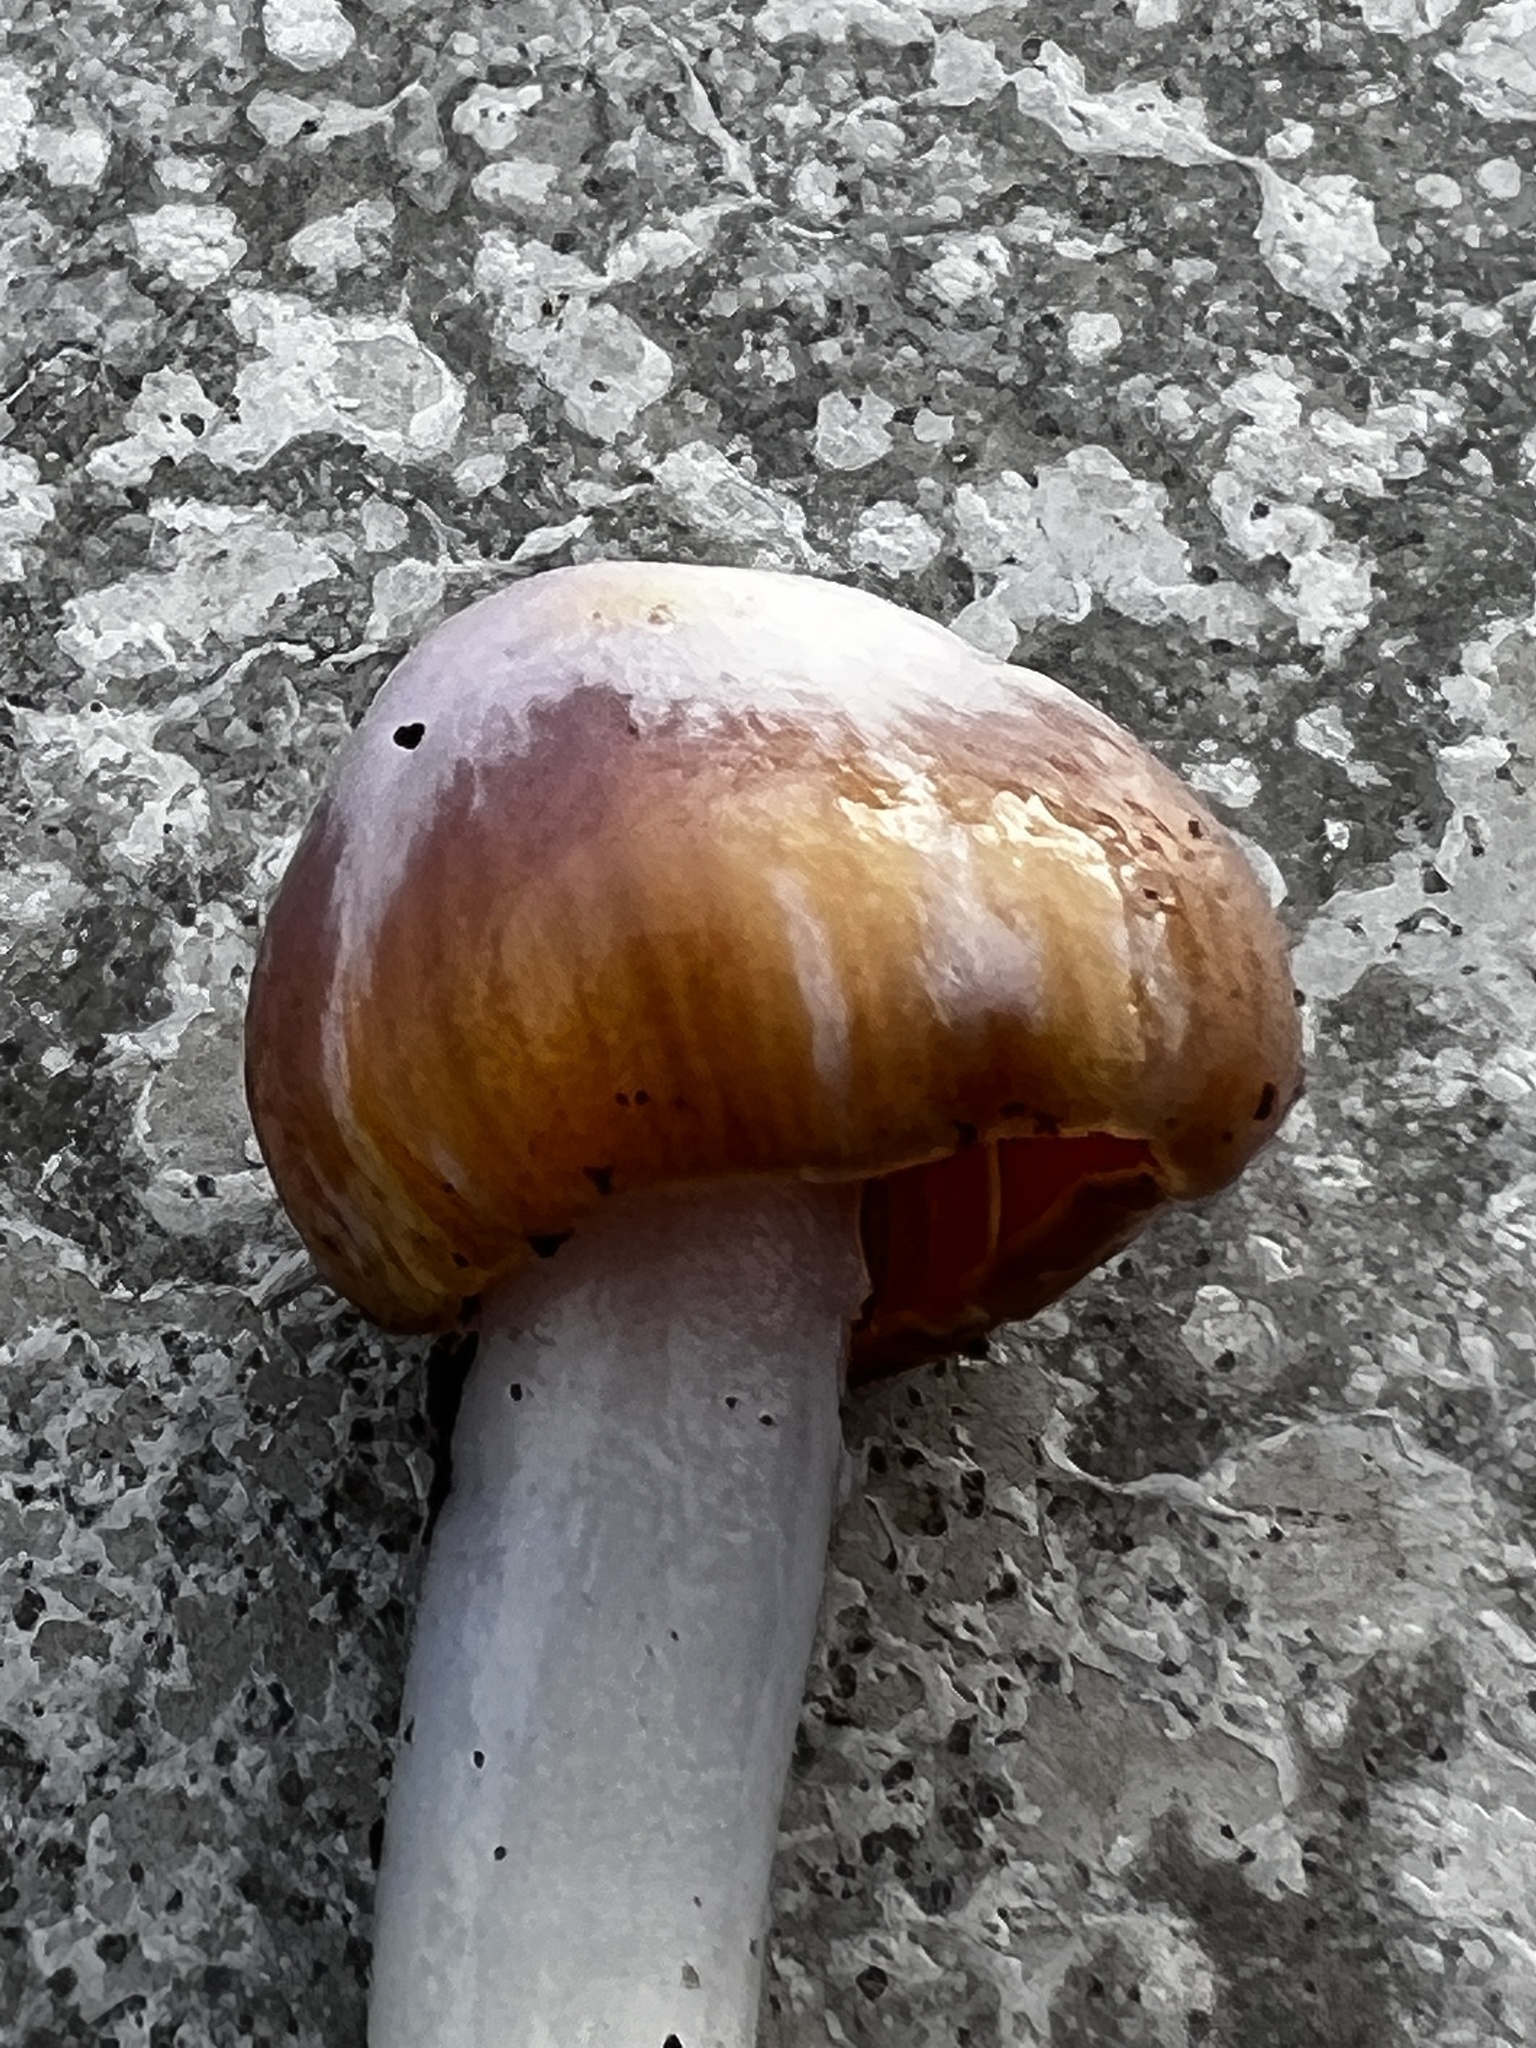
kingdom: Fungi
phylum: Basidiomycota
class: Agaricomycetes
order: Agaricales
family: Hygrophoraceae
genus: Hygrocybe
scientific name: Hygrocybe flavifolia
